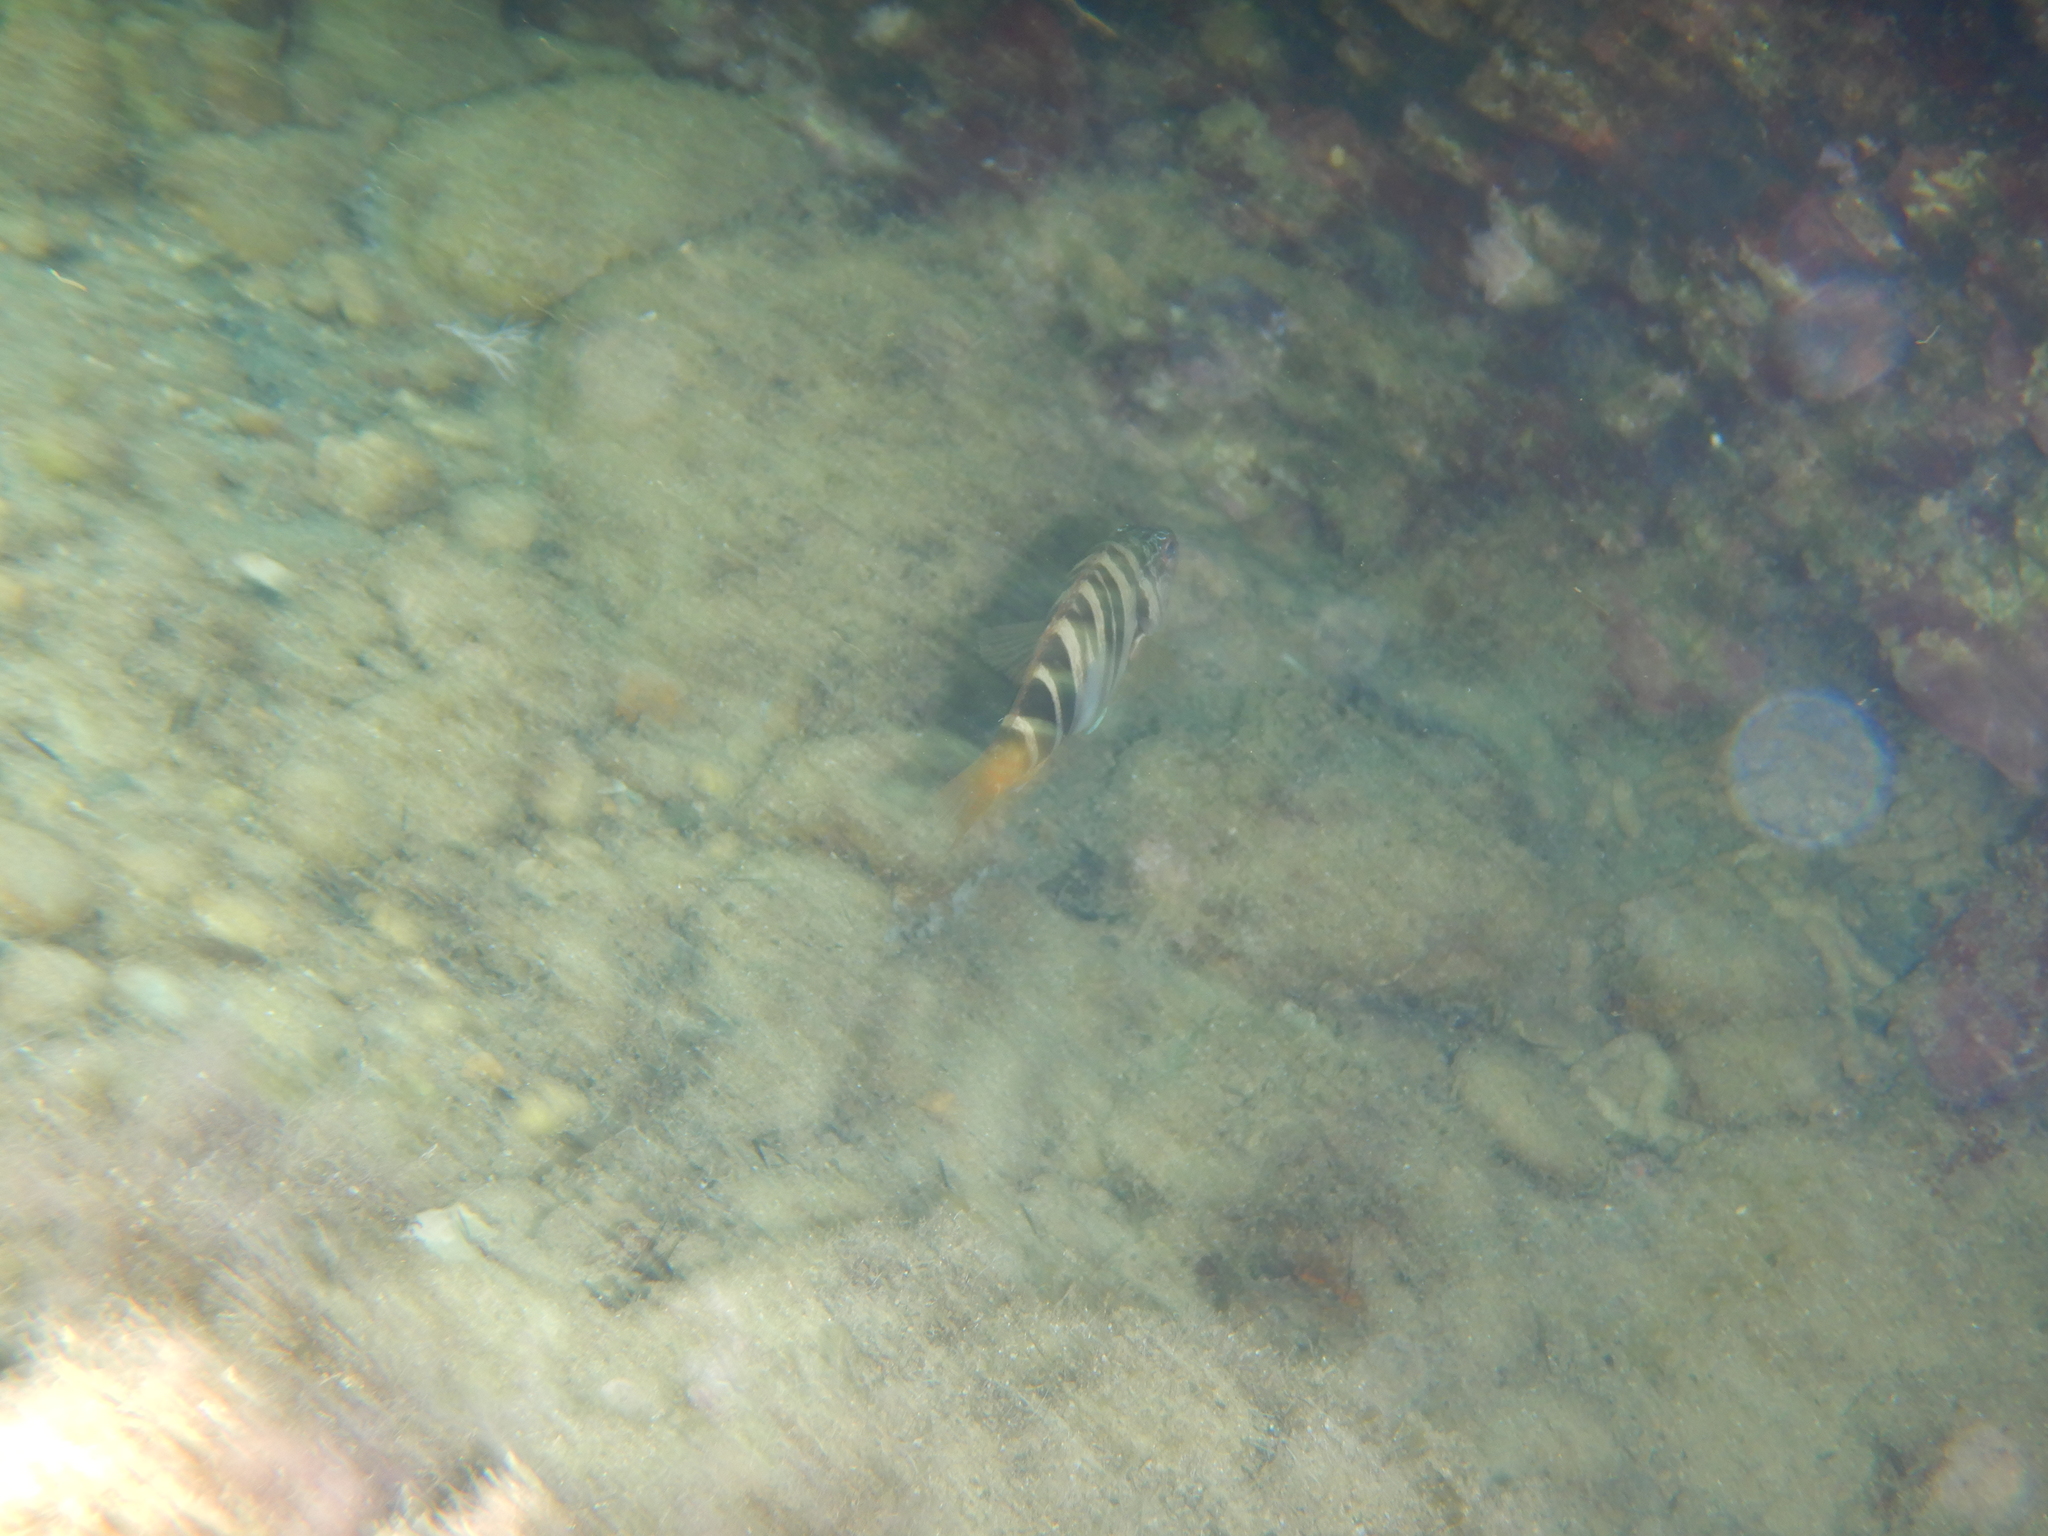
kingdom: Animalia
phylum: Chordata
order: Perciformes
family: Serranidae
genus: Serranus
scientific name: Serranus scriba
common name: Painted comber
